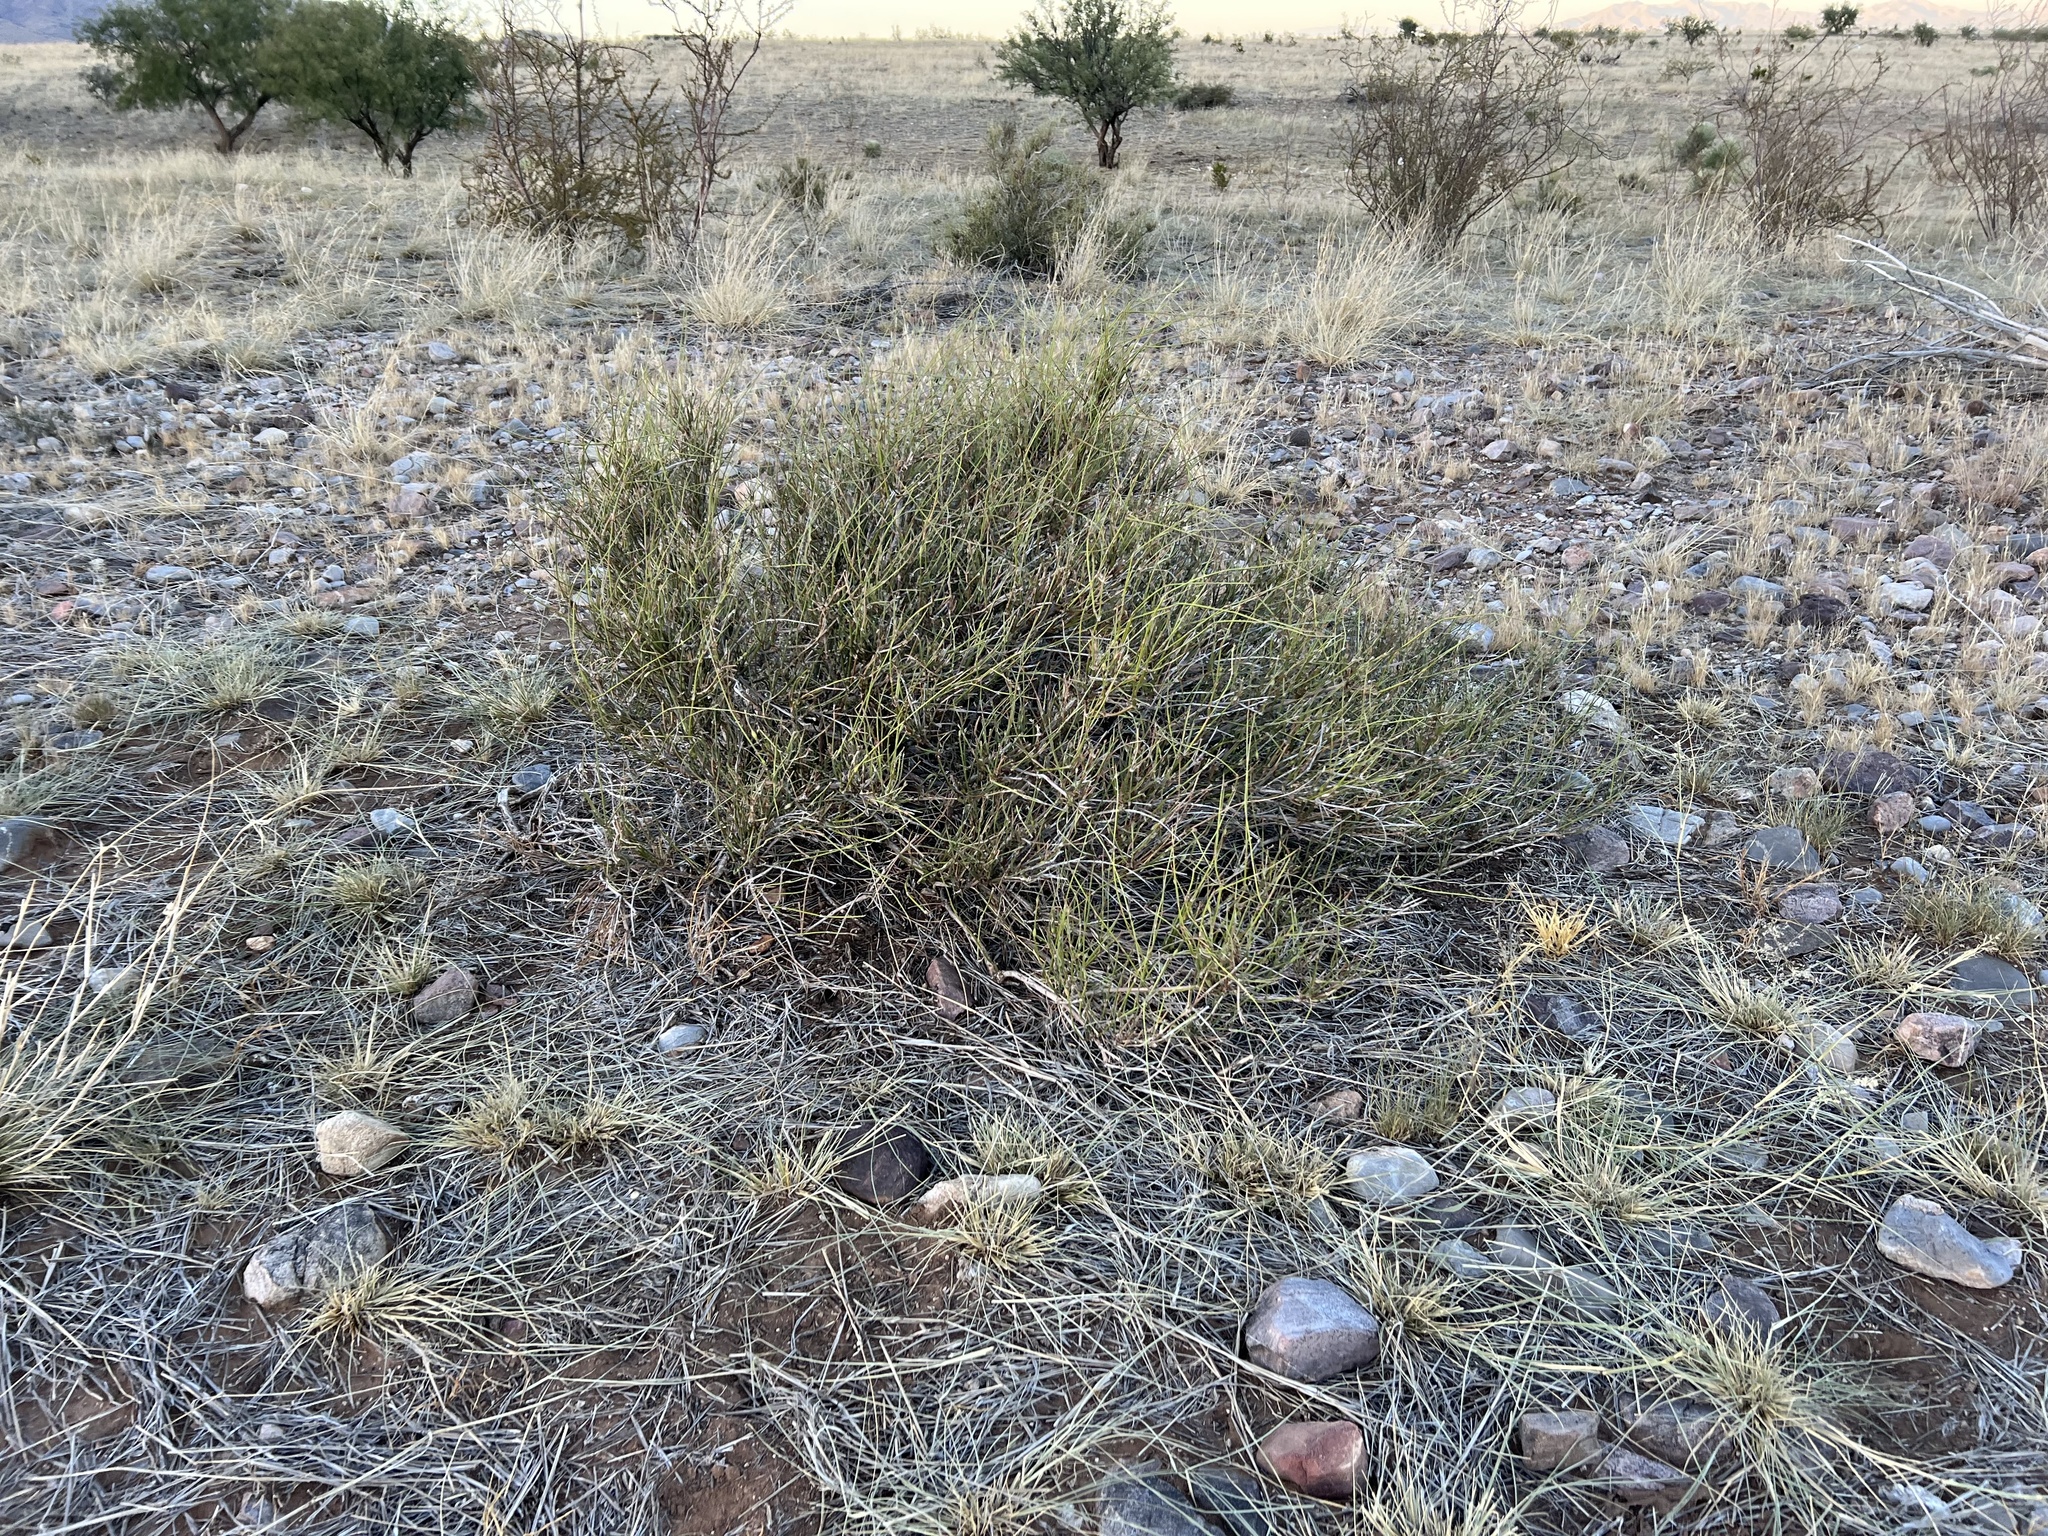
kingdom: Plantae
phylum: Tracheophyta
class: Gnetopsida
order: Ephedrales
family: Ephedraceae
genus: Ephedra
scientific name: Ephedra trifurca
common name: Mexican-tea
